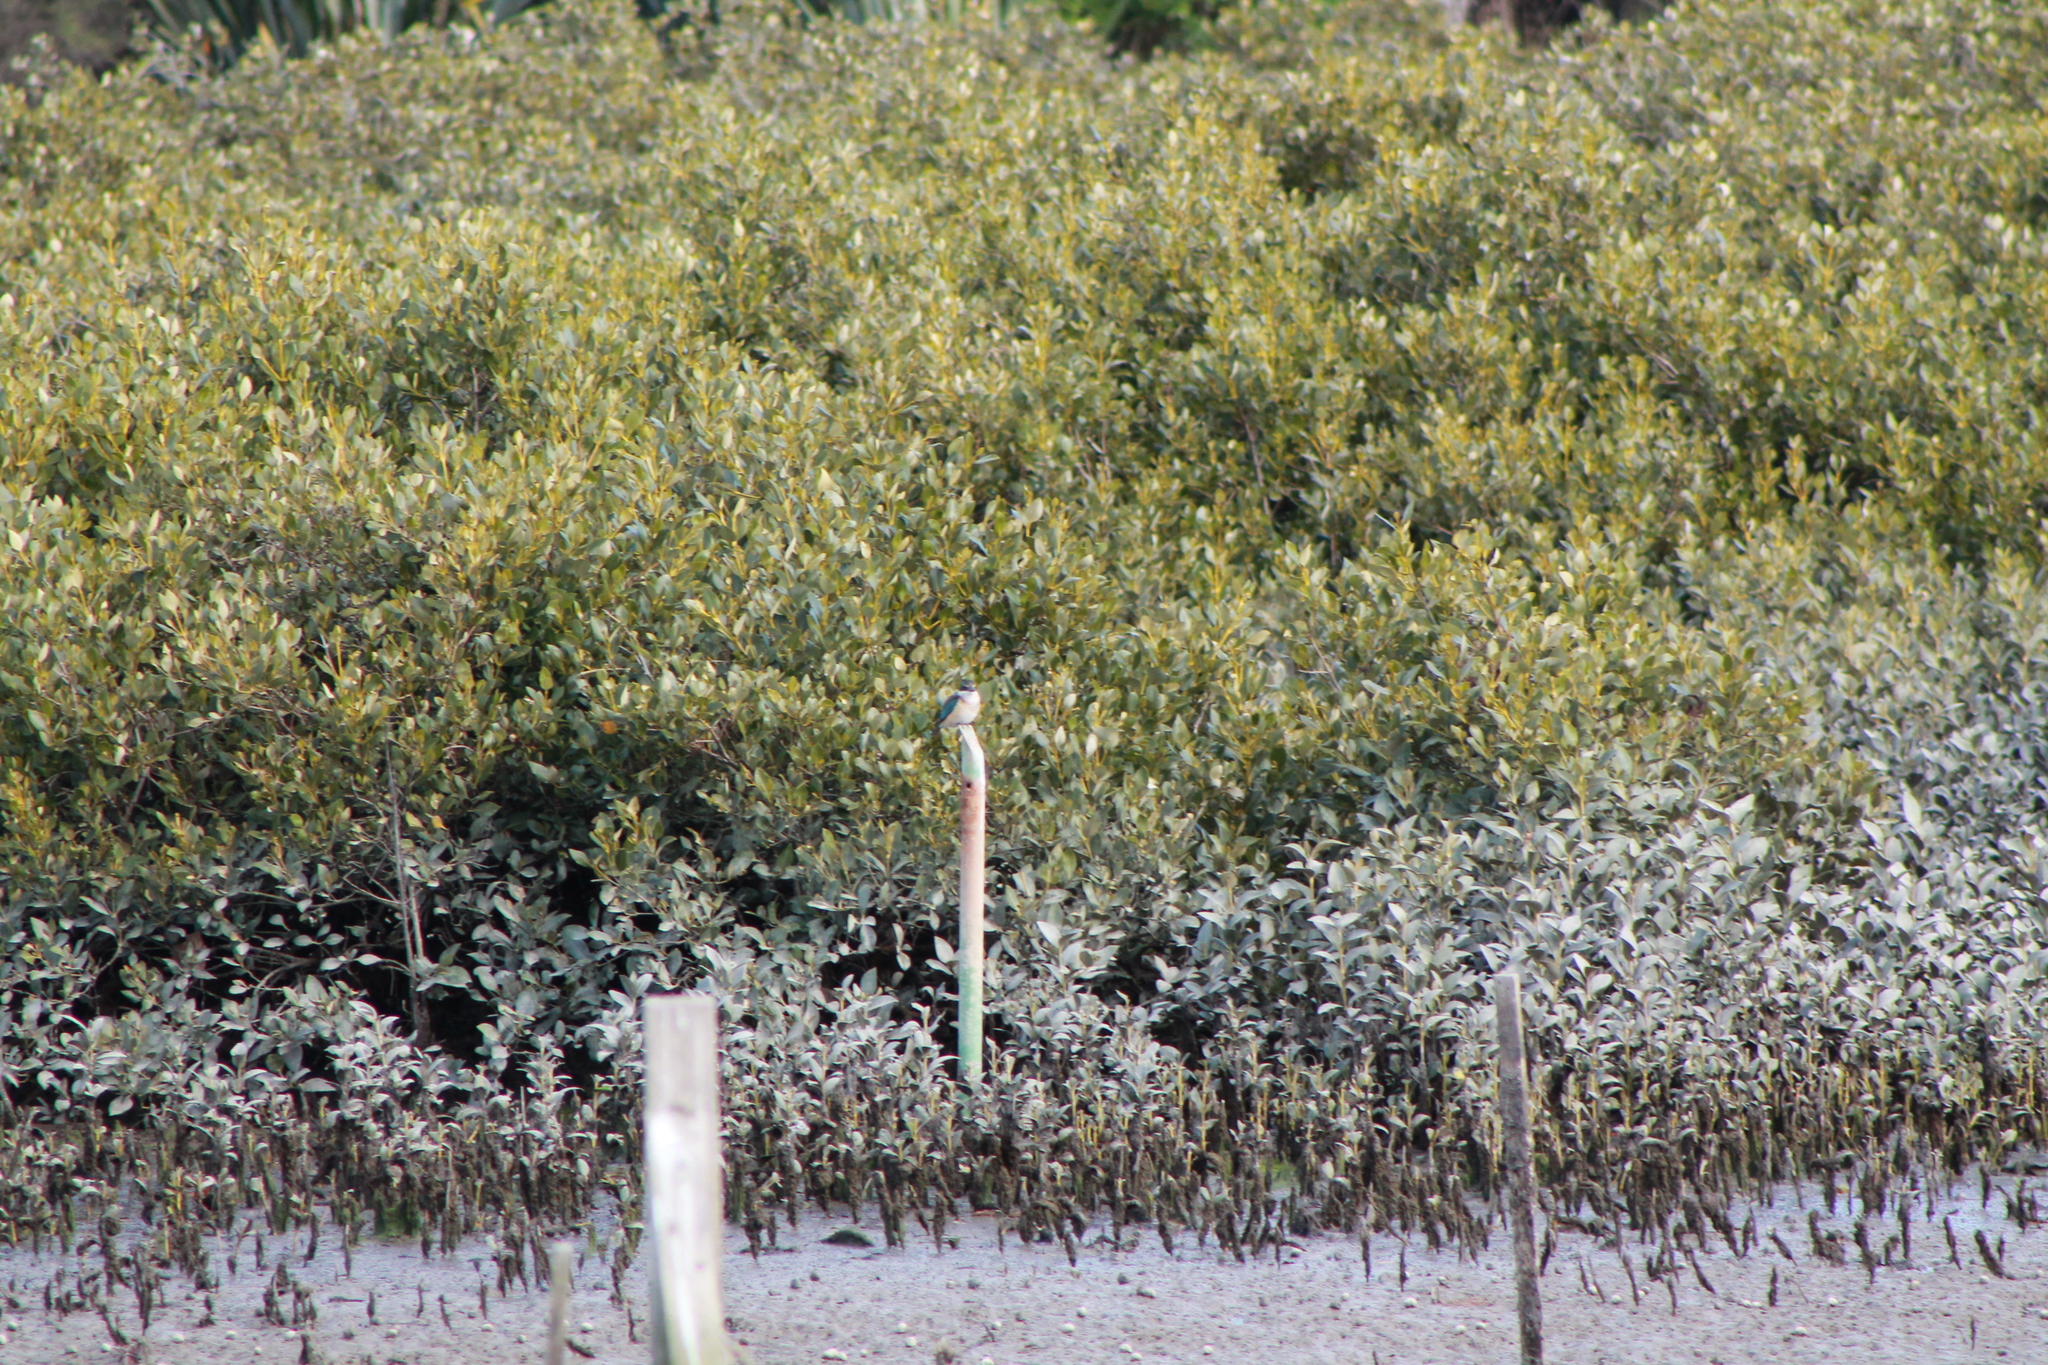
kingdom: Animalia
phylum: Chordata
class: Aves
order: Coraciiformes
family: Alcedinidae
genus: Todiramphus
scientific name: Todiramphus sanctus
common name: Sacred kingfisher
